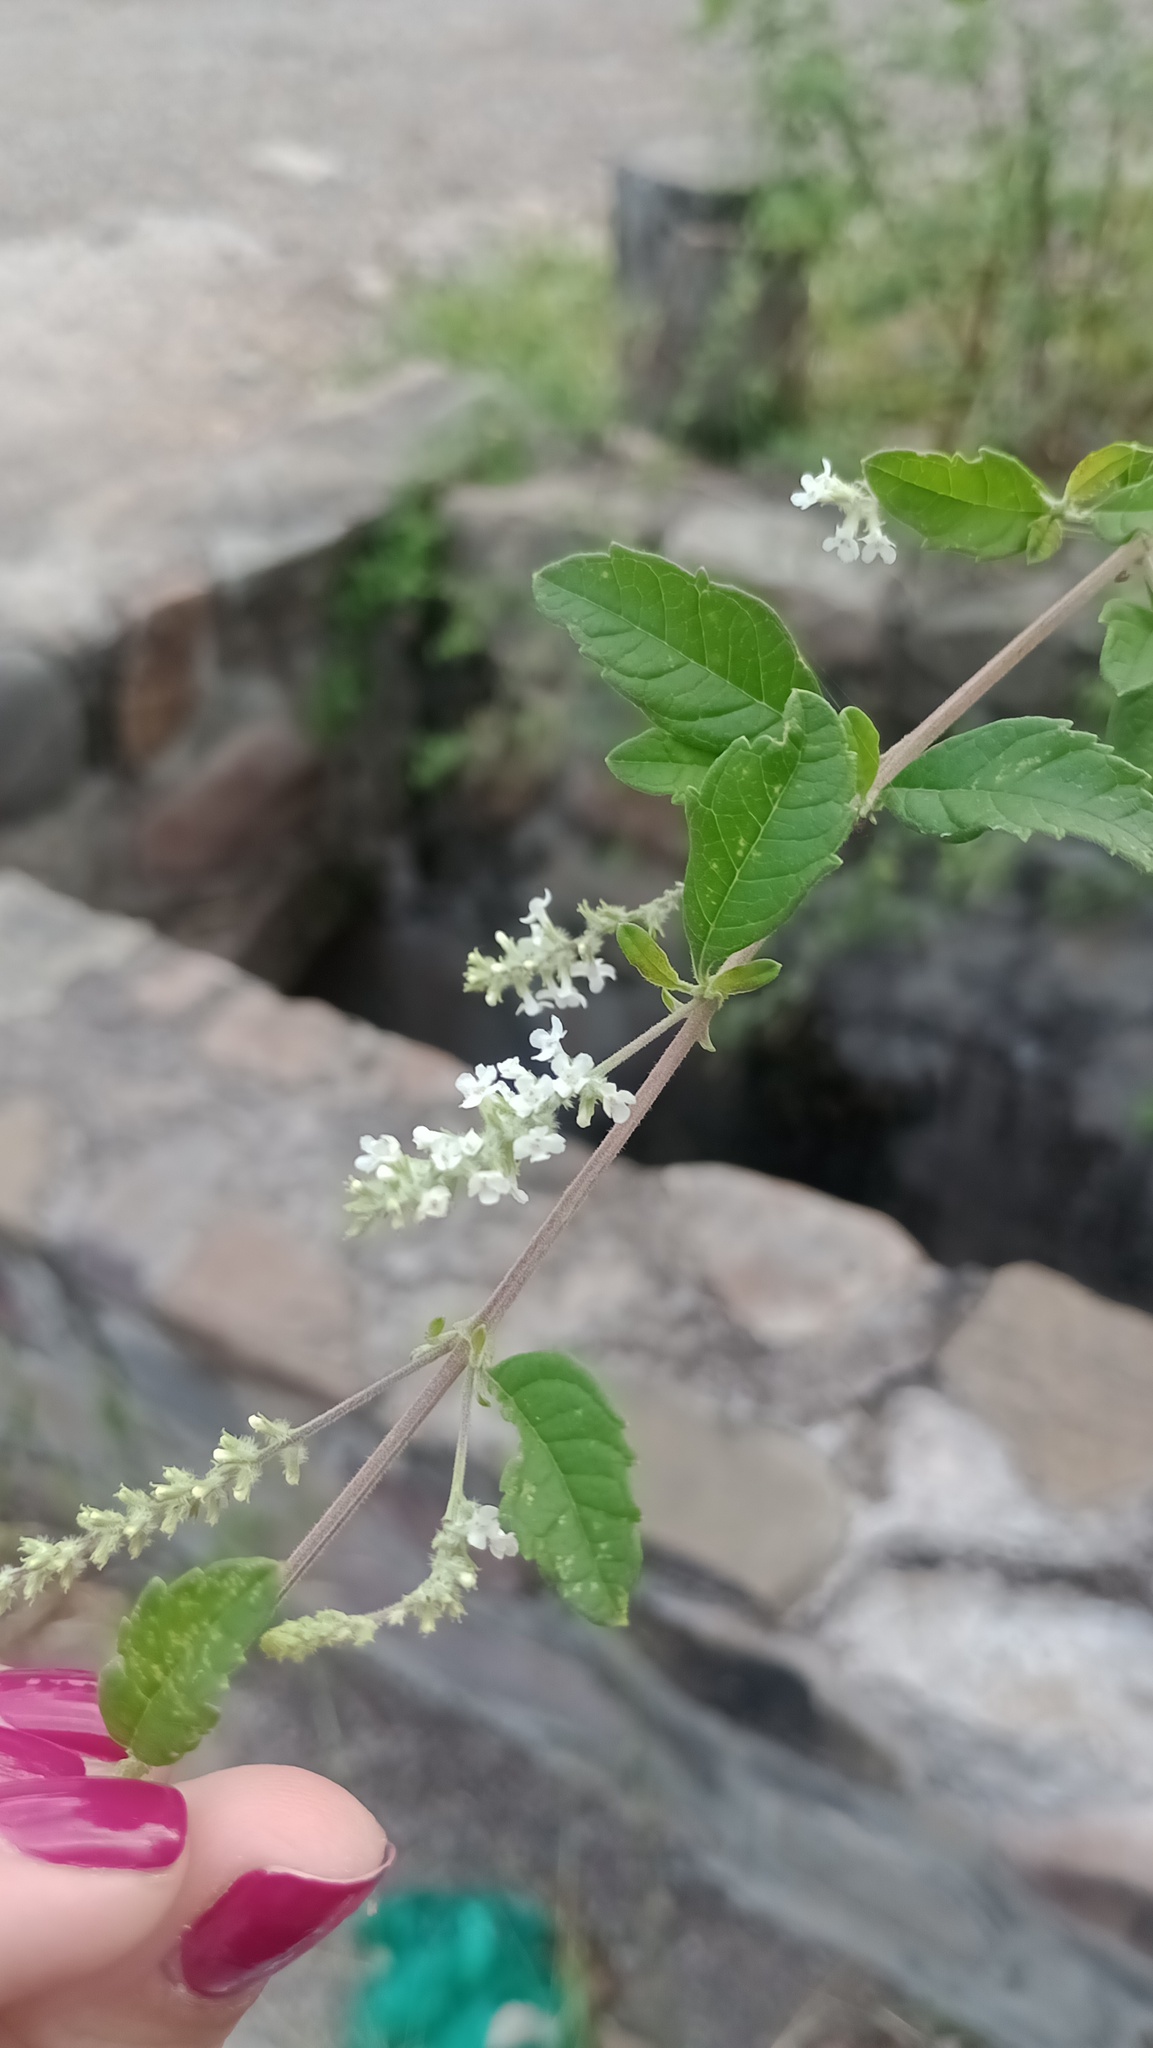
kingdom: Plantae
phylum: Tracheophyta
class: Magnoliopsida
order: Lamiales
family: Verbenaceae
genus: Aloysia
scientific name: Aloysia gratissima
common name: Common bee-brush
